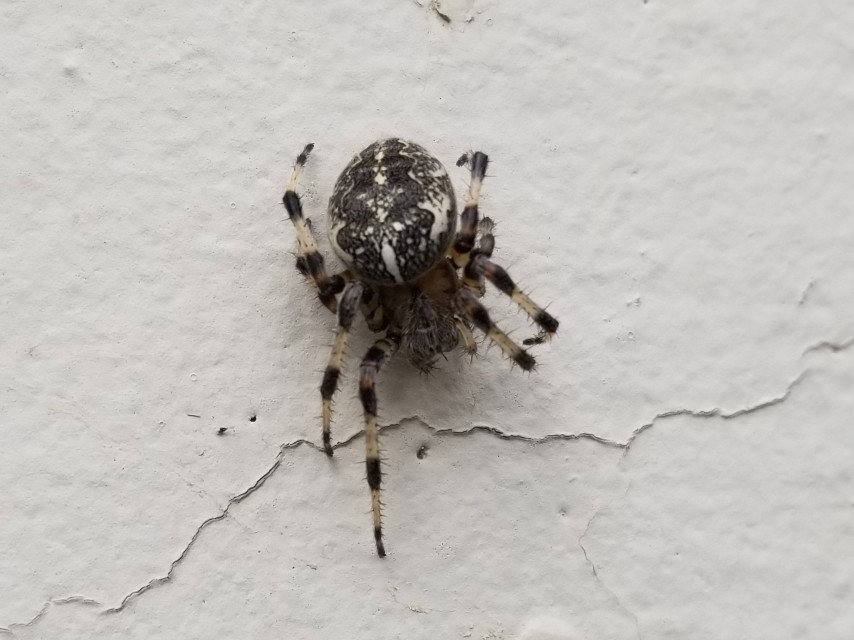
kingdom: Animalia
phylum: Arthropoda
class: Arachnida
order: Araneae
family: Araneidae
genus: Araneus
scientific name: Araneus marmoreus
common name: Marbled orbweaver
